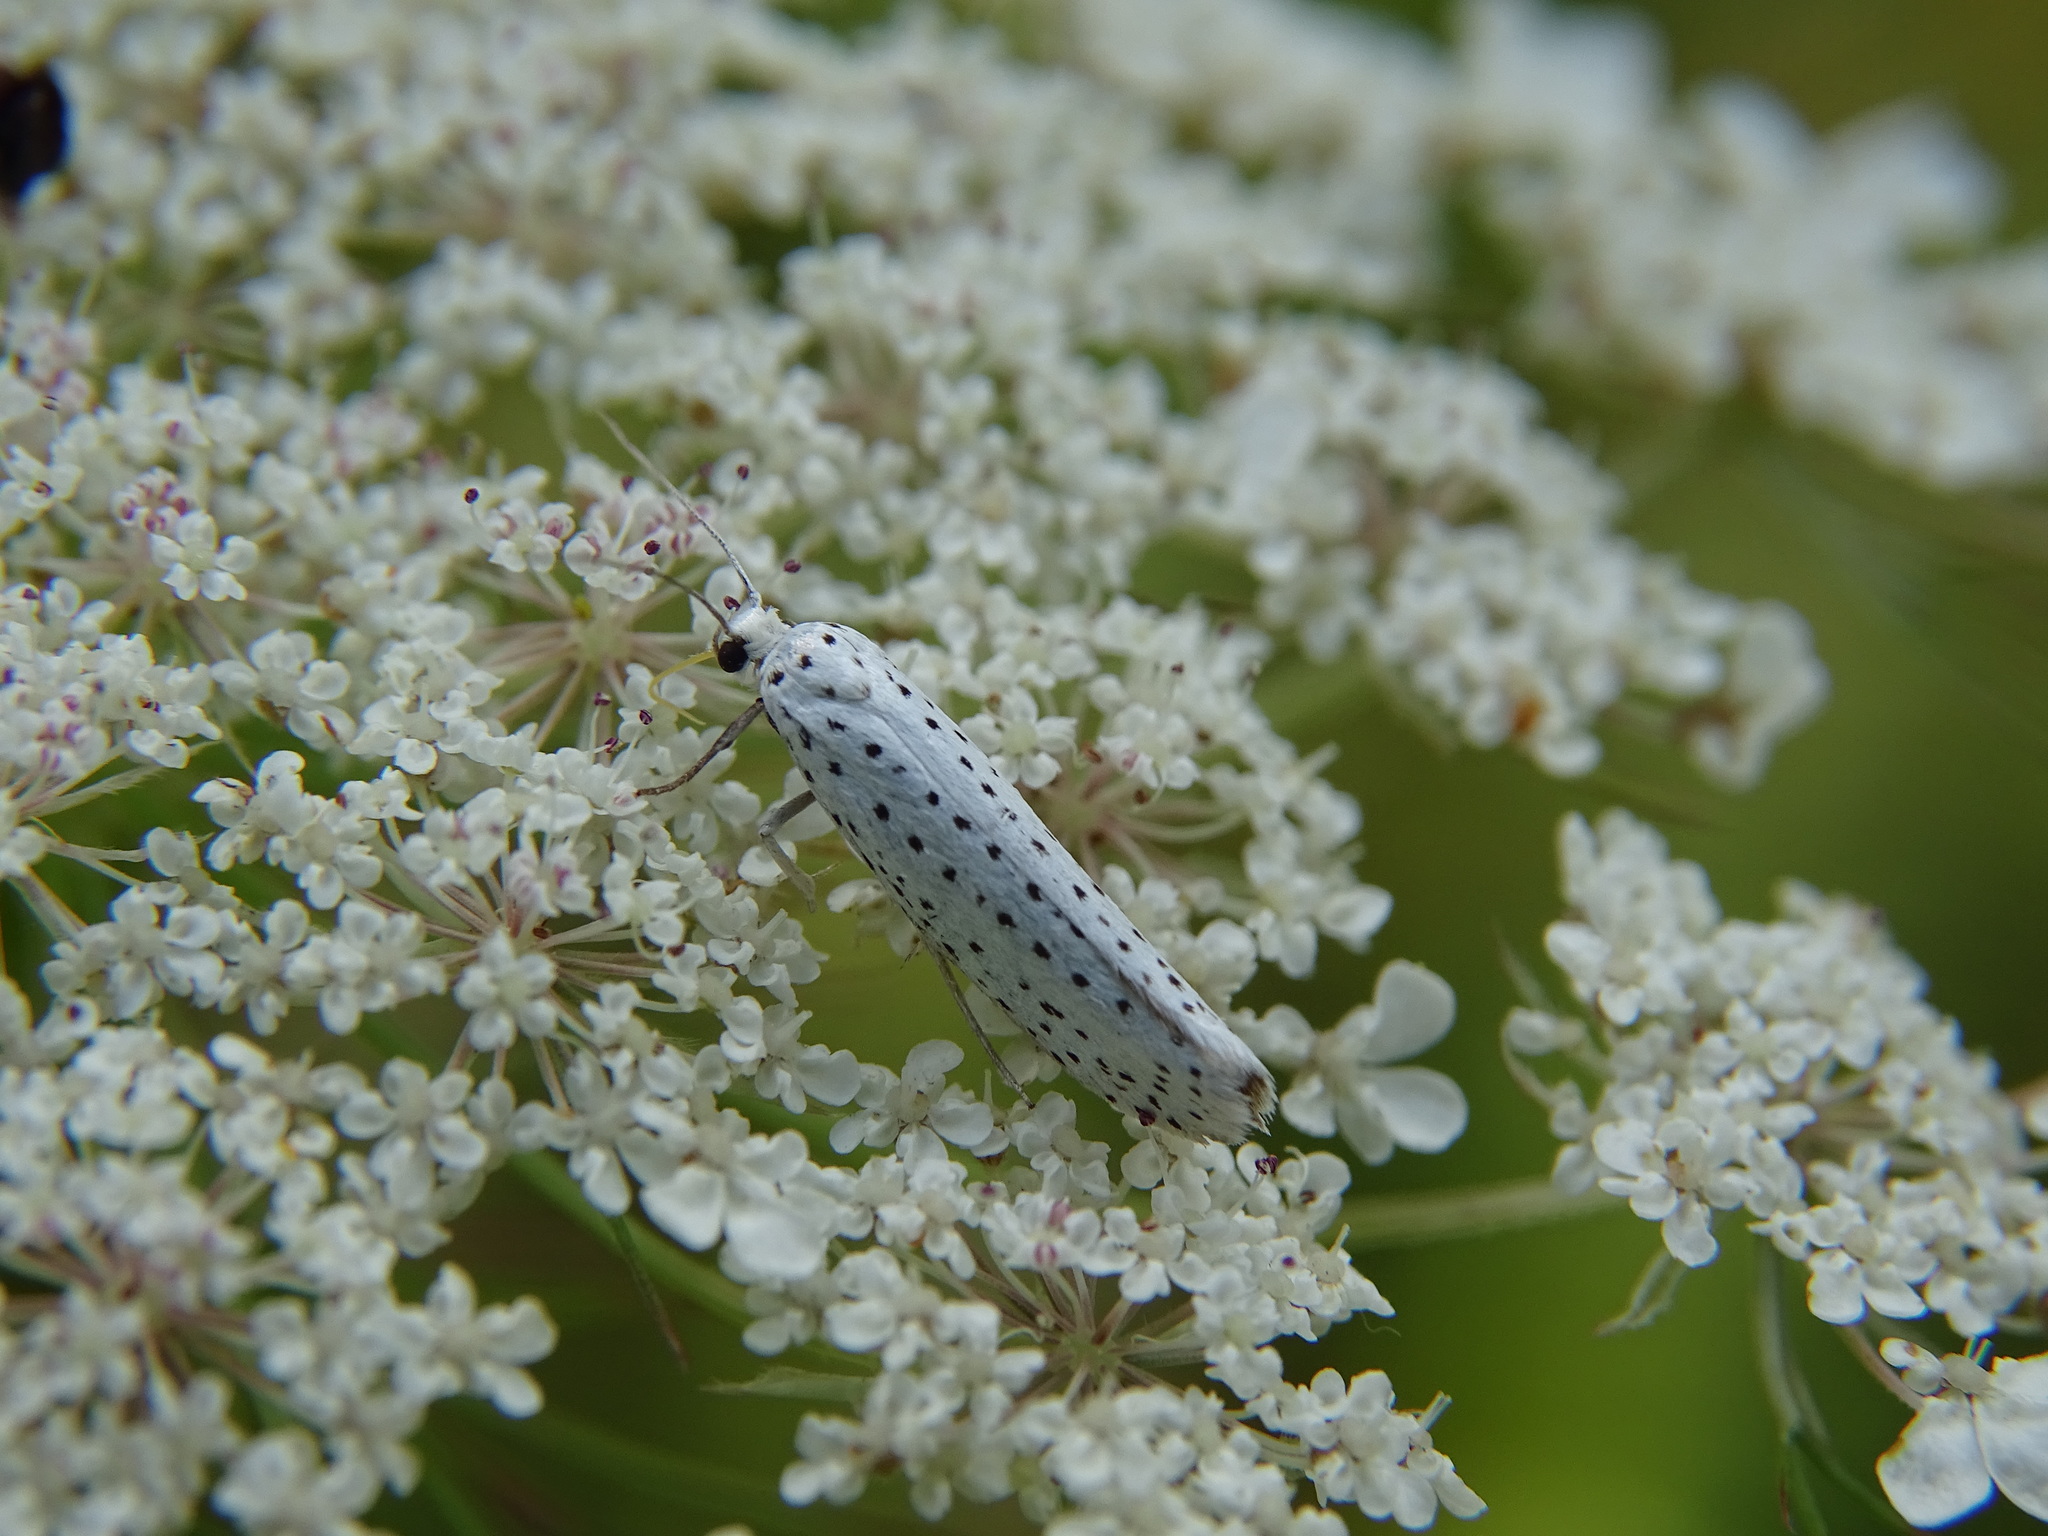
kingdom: Animalia
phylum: Arthropoda
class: Insecta
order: Lepidoptera
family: Yponomeutidae
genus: Yponomeuta
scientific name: Yponomeuta evonymella
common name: Bird-cherry ermine
